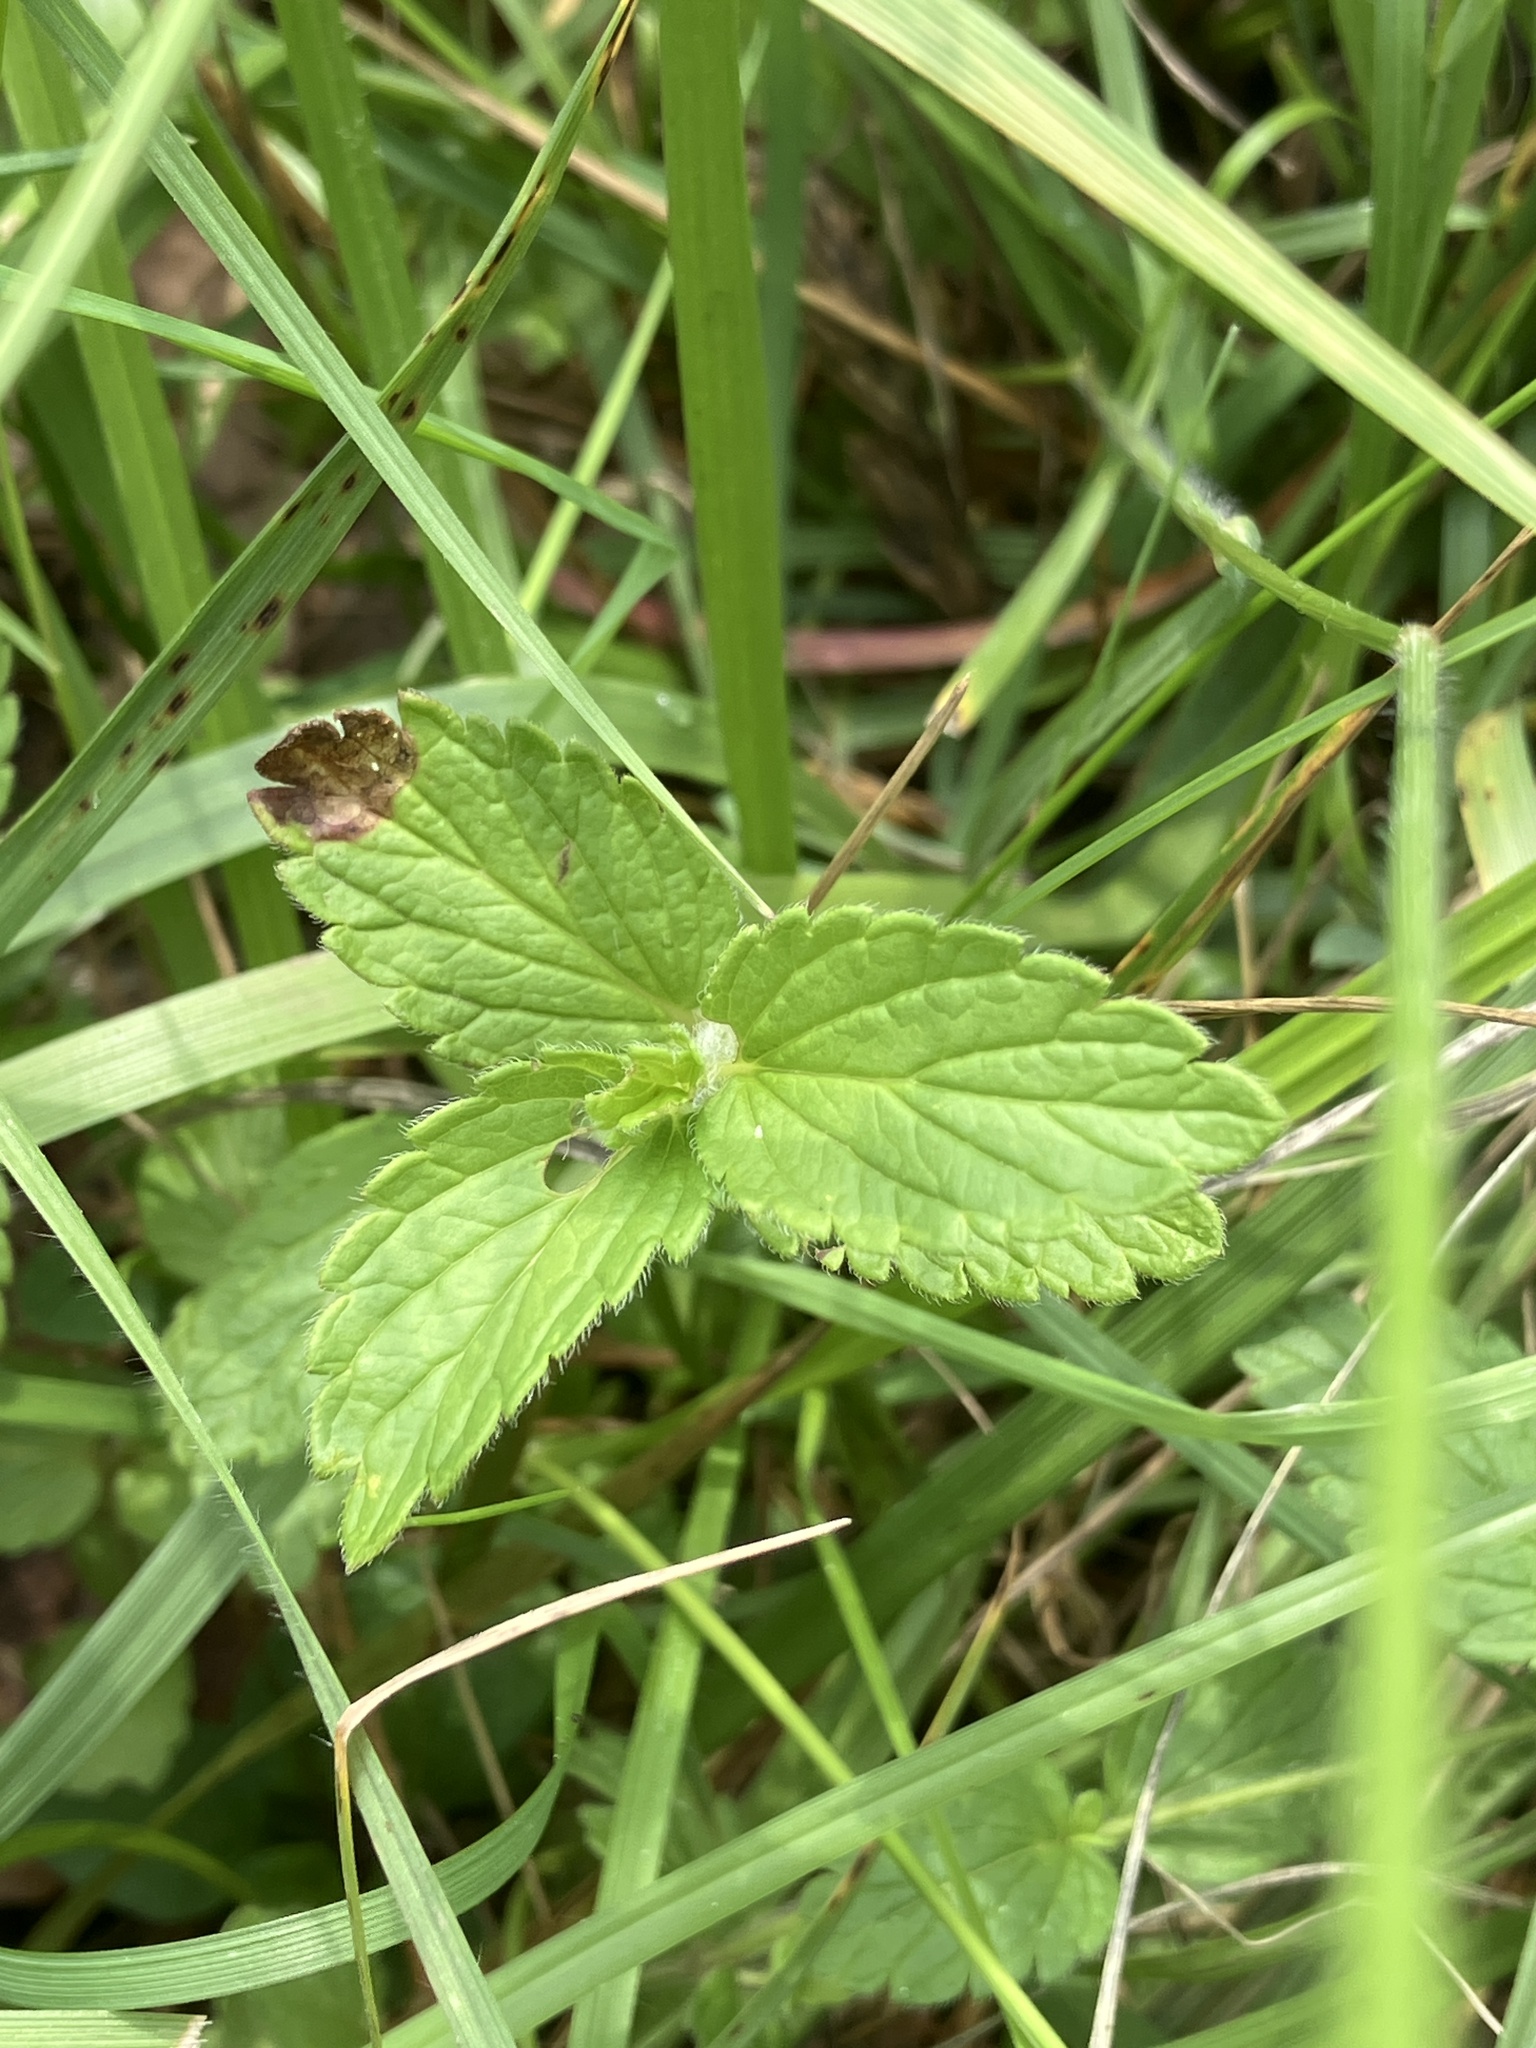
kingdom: Plantae
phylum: Tracheophyta
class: Magnoliopsida
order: Lamiales
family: Plantaginaceae
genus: Veronica
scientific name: Veronica chamaedrys
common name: Germander speedwell
